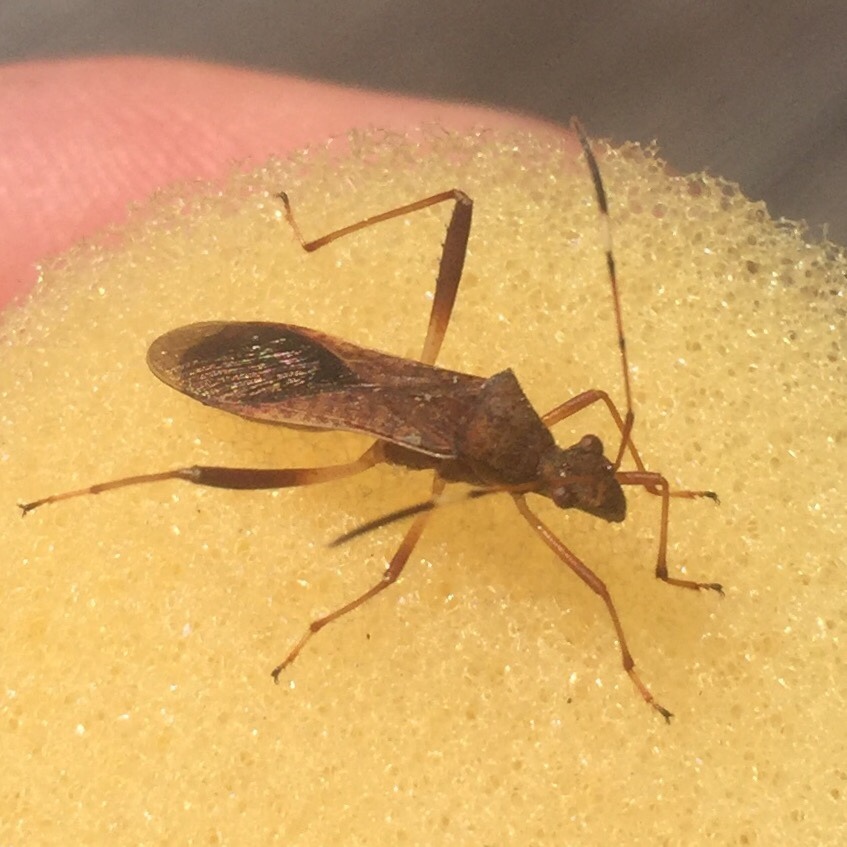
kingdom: Animalia
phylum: Arthropoda
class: Insecta
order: Hemiptera
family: Alydidae
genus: Megalotomus
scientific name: Megalotomus quinquespinosus
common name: Lupine bug
